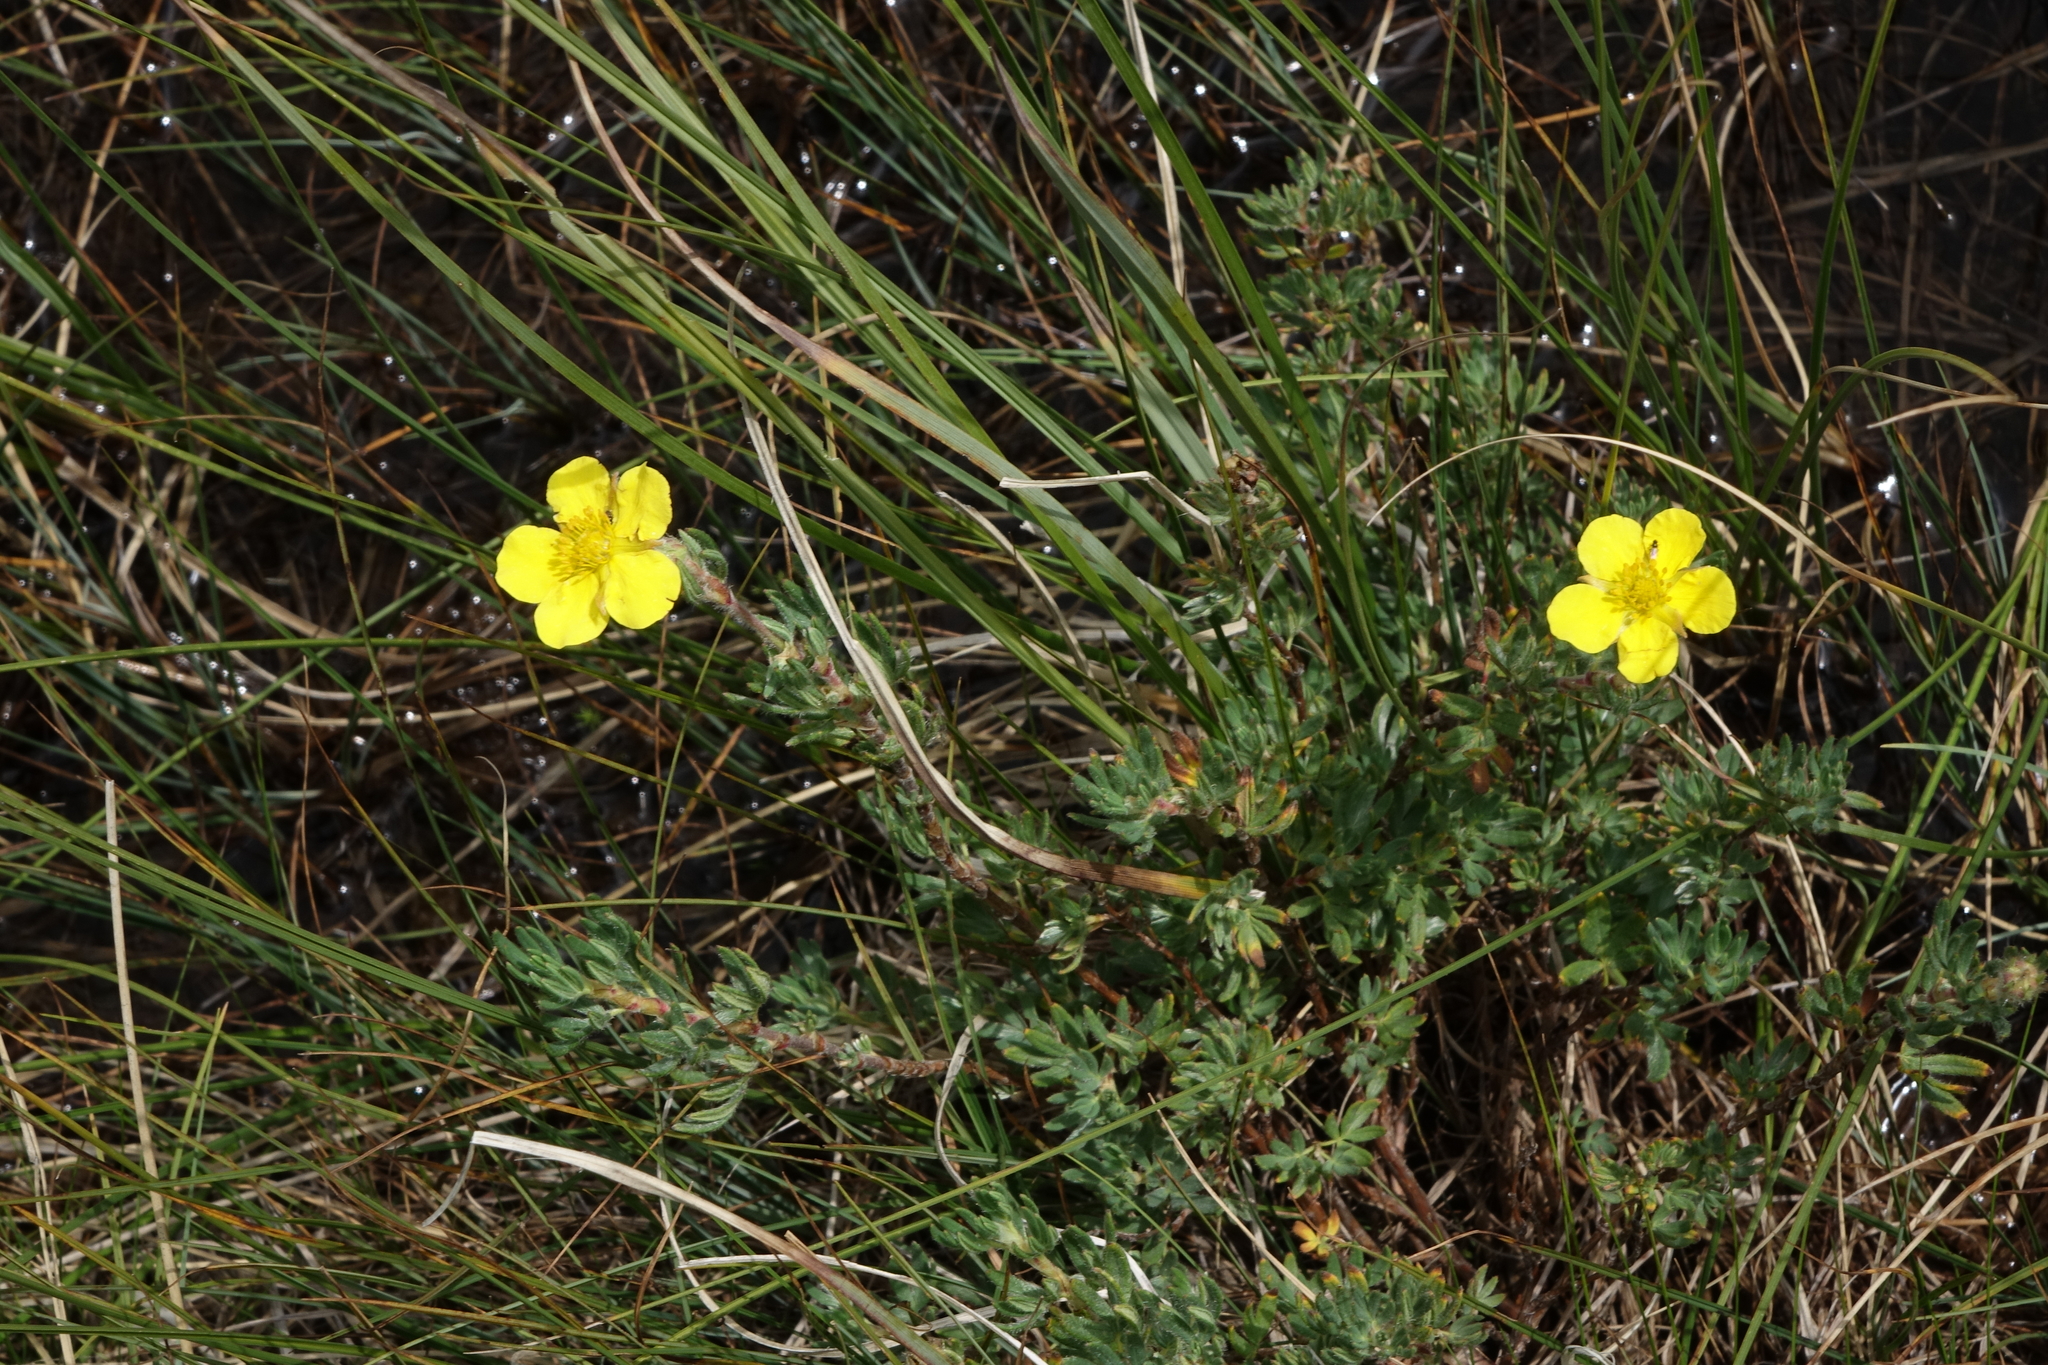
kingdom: Plantae
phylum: Tracheophyta
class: Magnoliopsida
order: Rosales
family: Rosaceae
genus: Dasiphora
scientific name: Dasiphora fruticosa
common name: Shrubby cinquefoil
